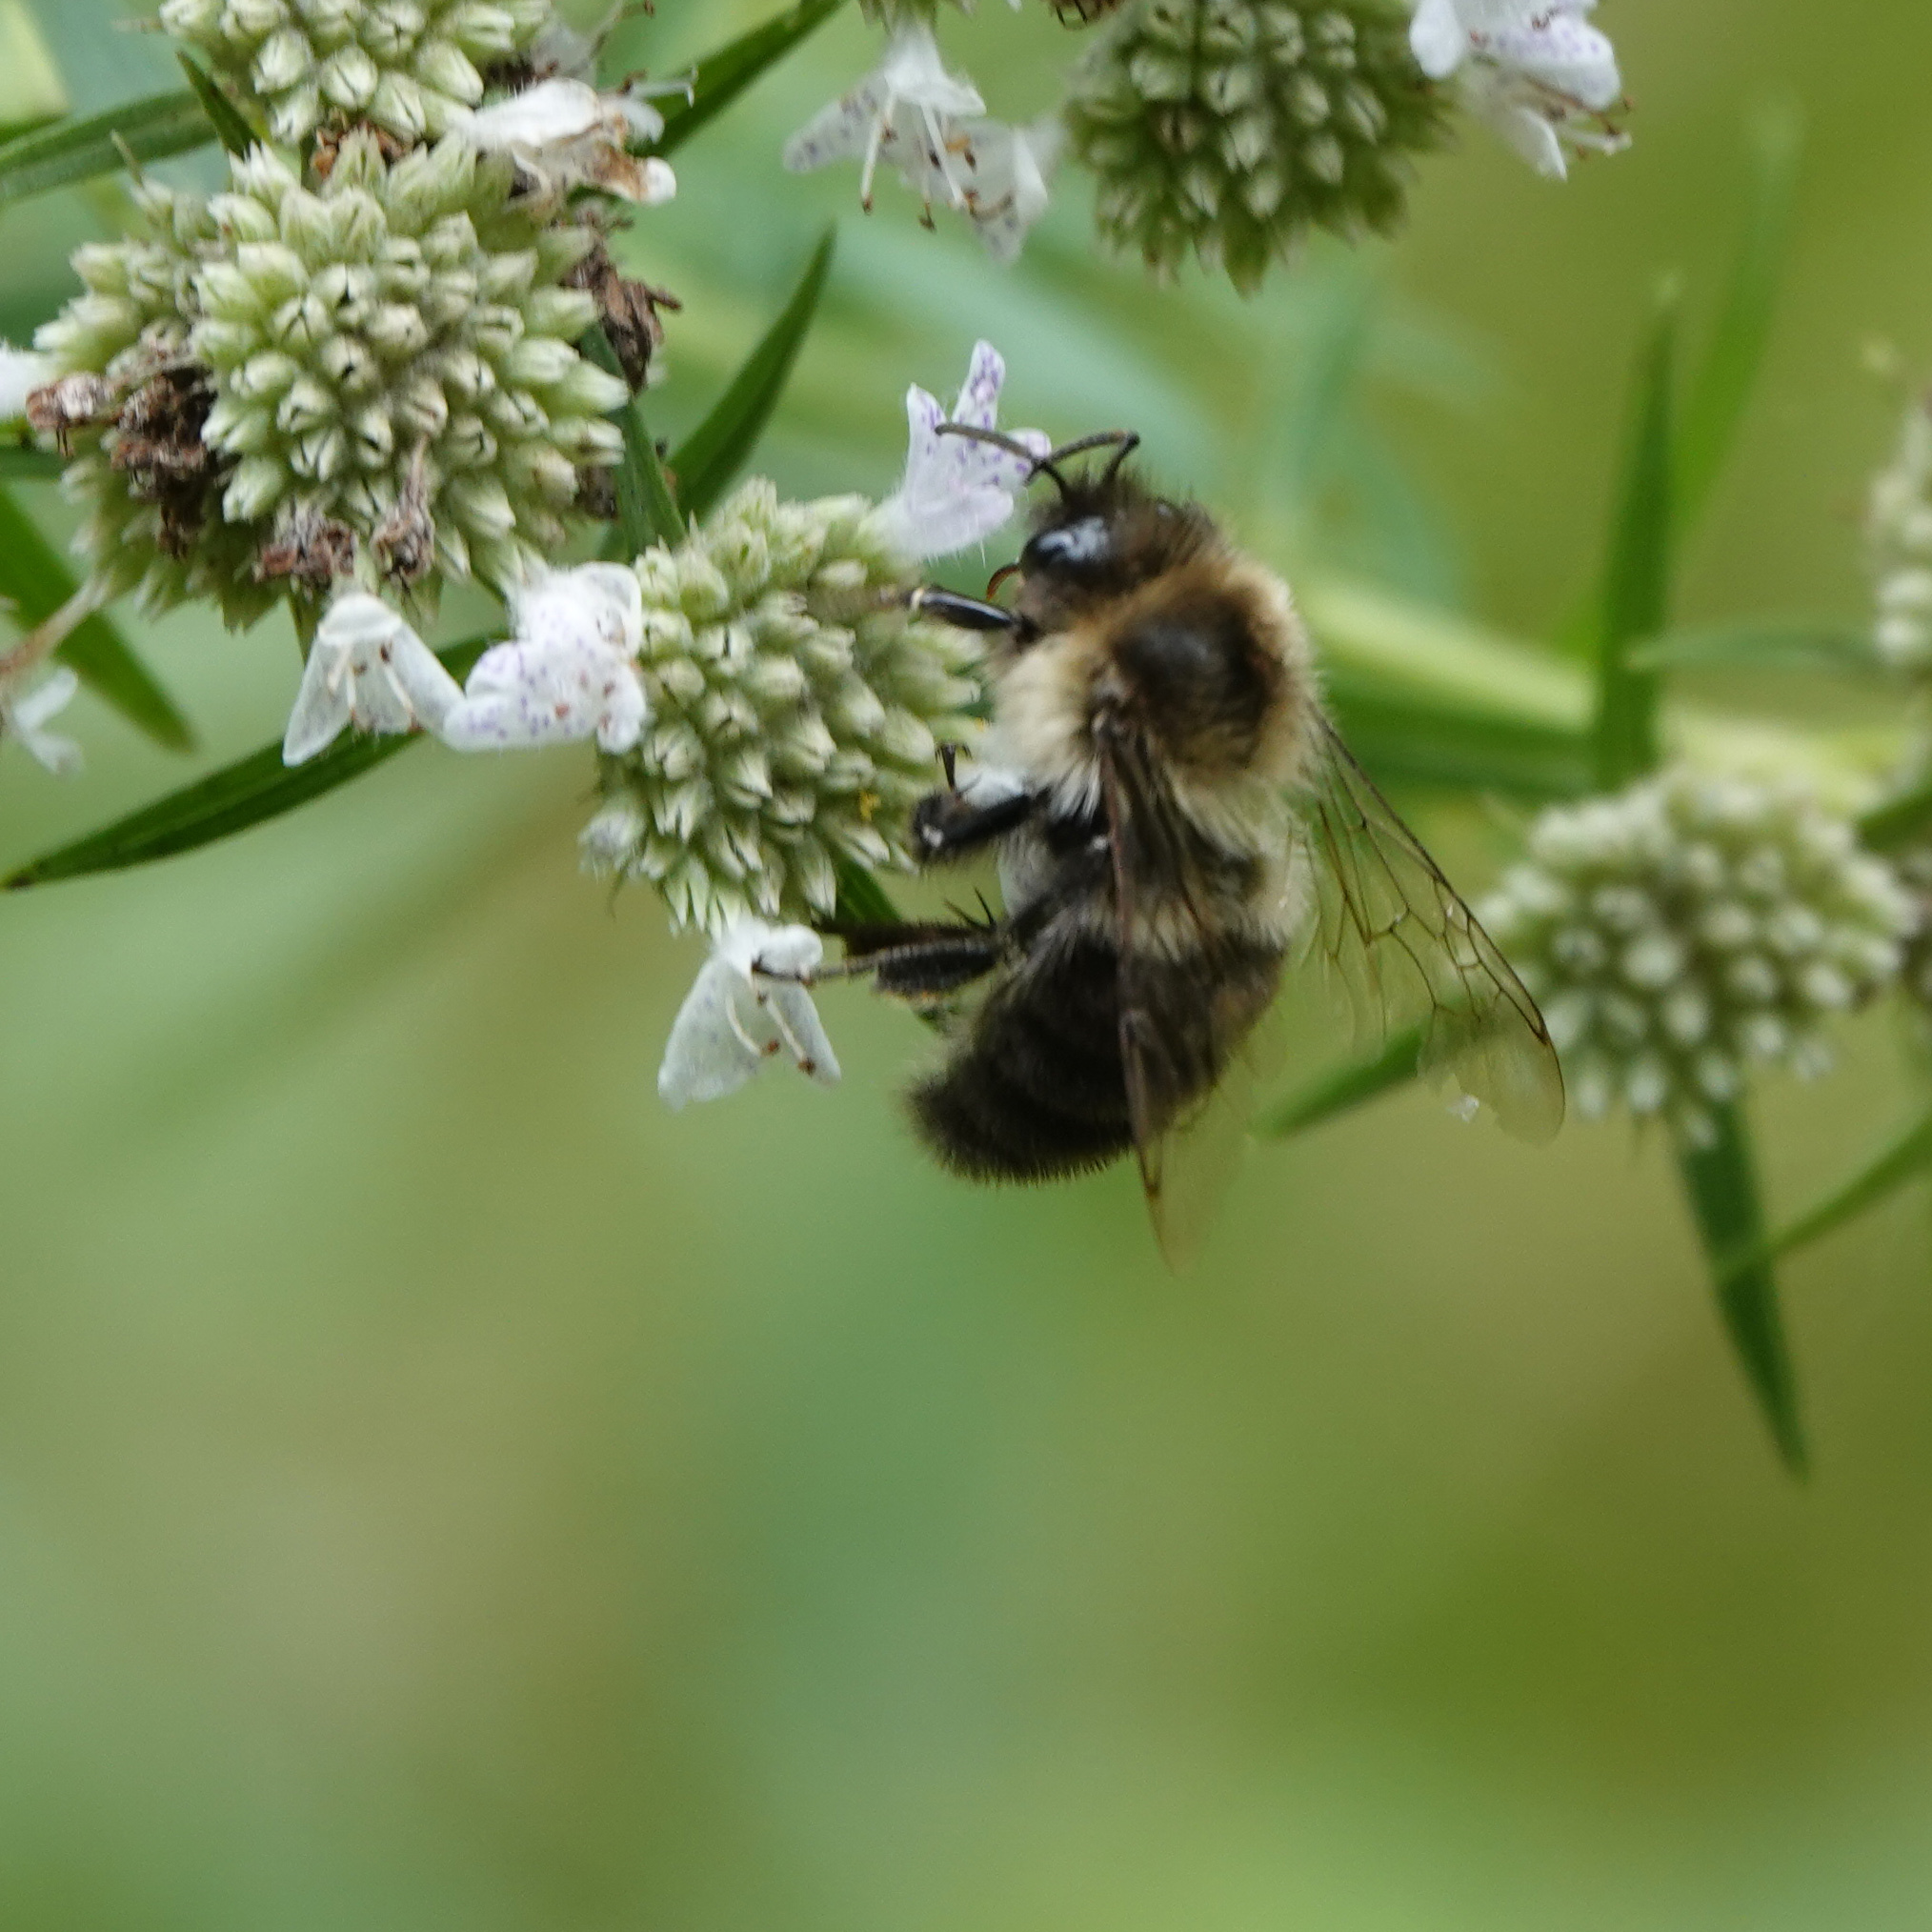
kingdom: Animalia
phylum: Arthropoda
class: Insecta
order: Hymenoptera
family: Apidae
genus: Bombus
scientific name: Bombus impatiens
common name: Common eastern bumble bee
